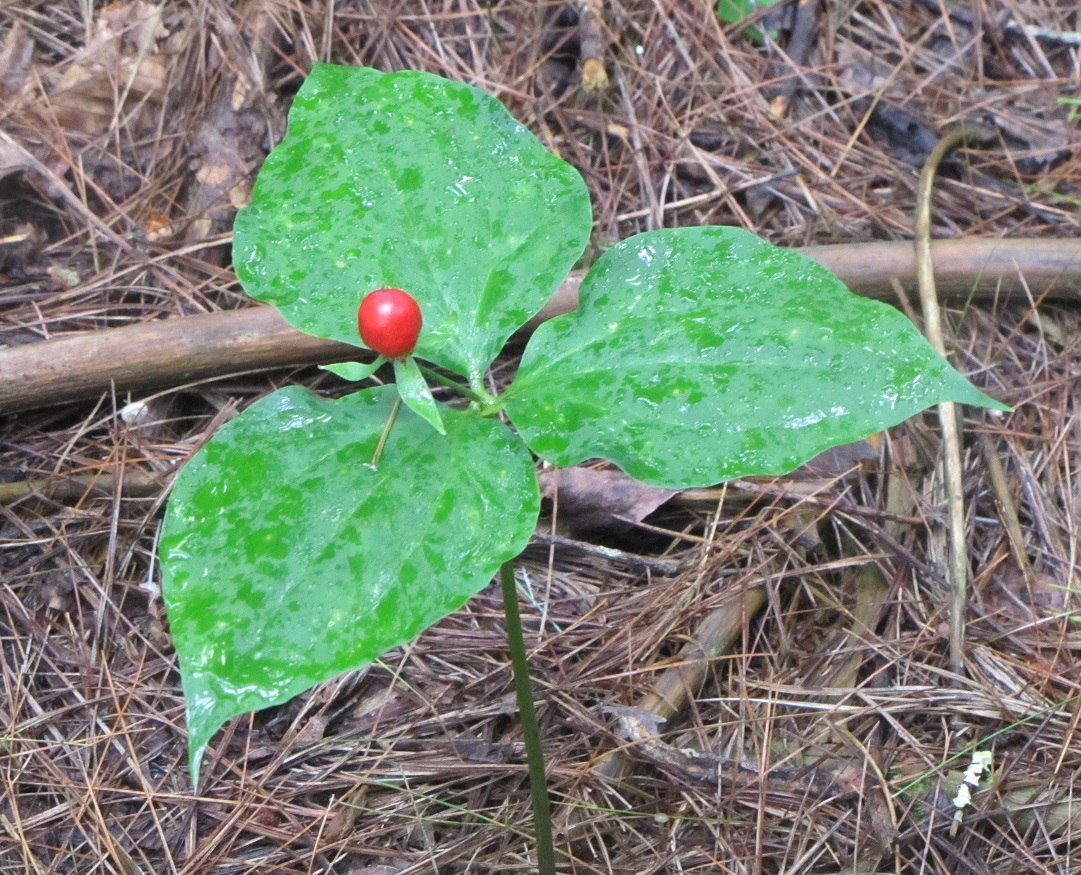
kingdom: Plantae
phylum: Tracheophyta
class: Liliopsida
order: Liliales
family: Melanthiaceae
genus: Trillium
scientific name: Trillium undulatum
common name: Paint trillium
